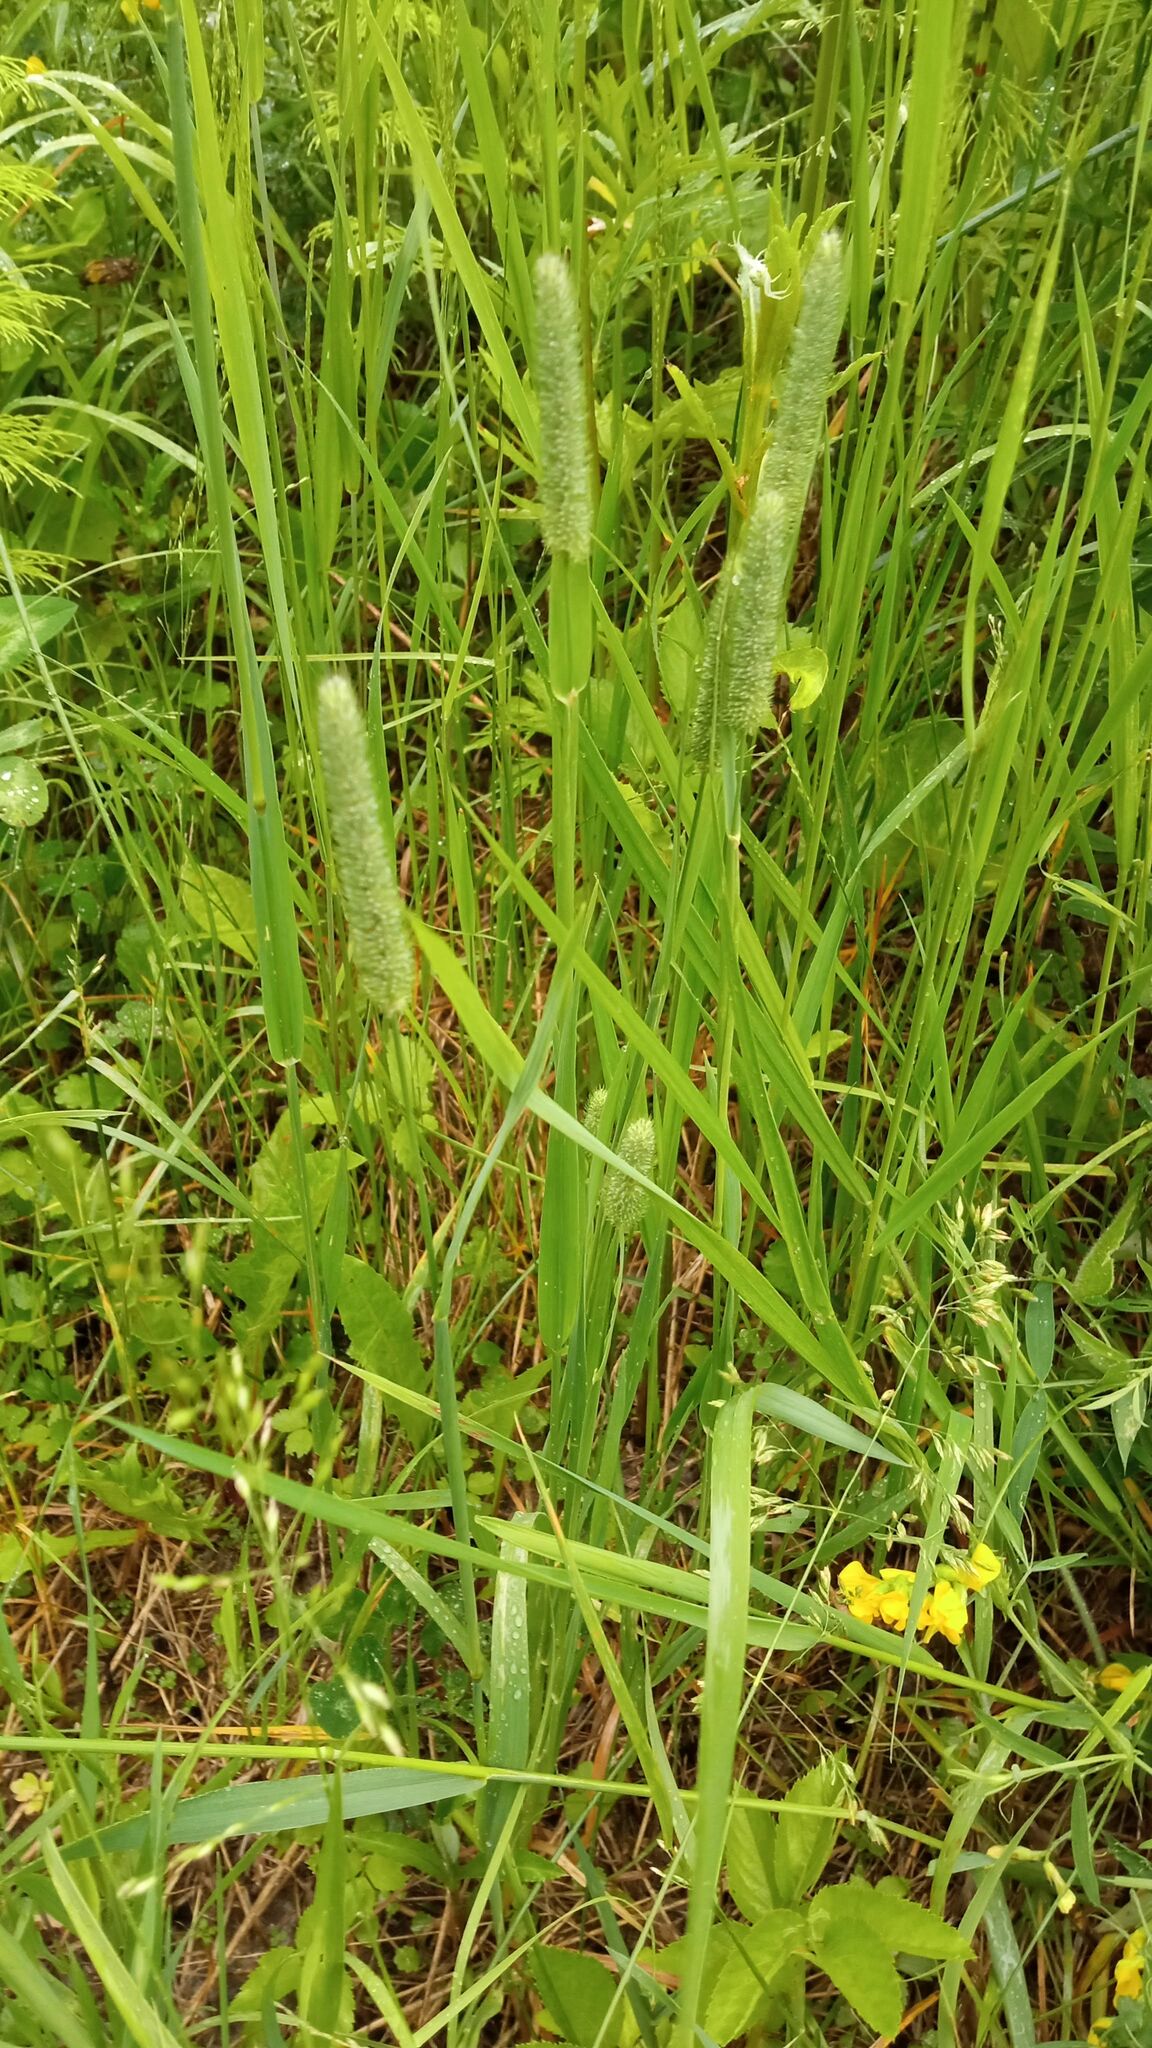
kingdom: Plantae
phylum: Tracheophyta
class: Liliopsida
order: Poales
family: Poaceae
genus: Phleum
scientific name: Phleum pratense
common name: Timothy grass
